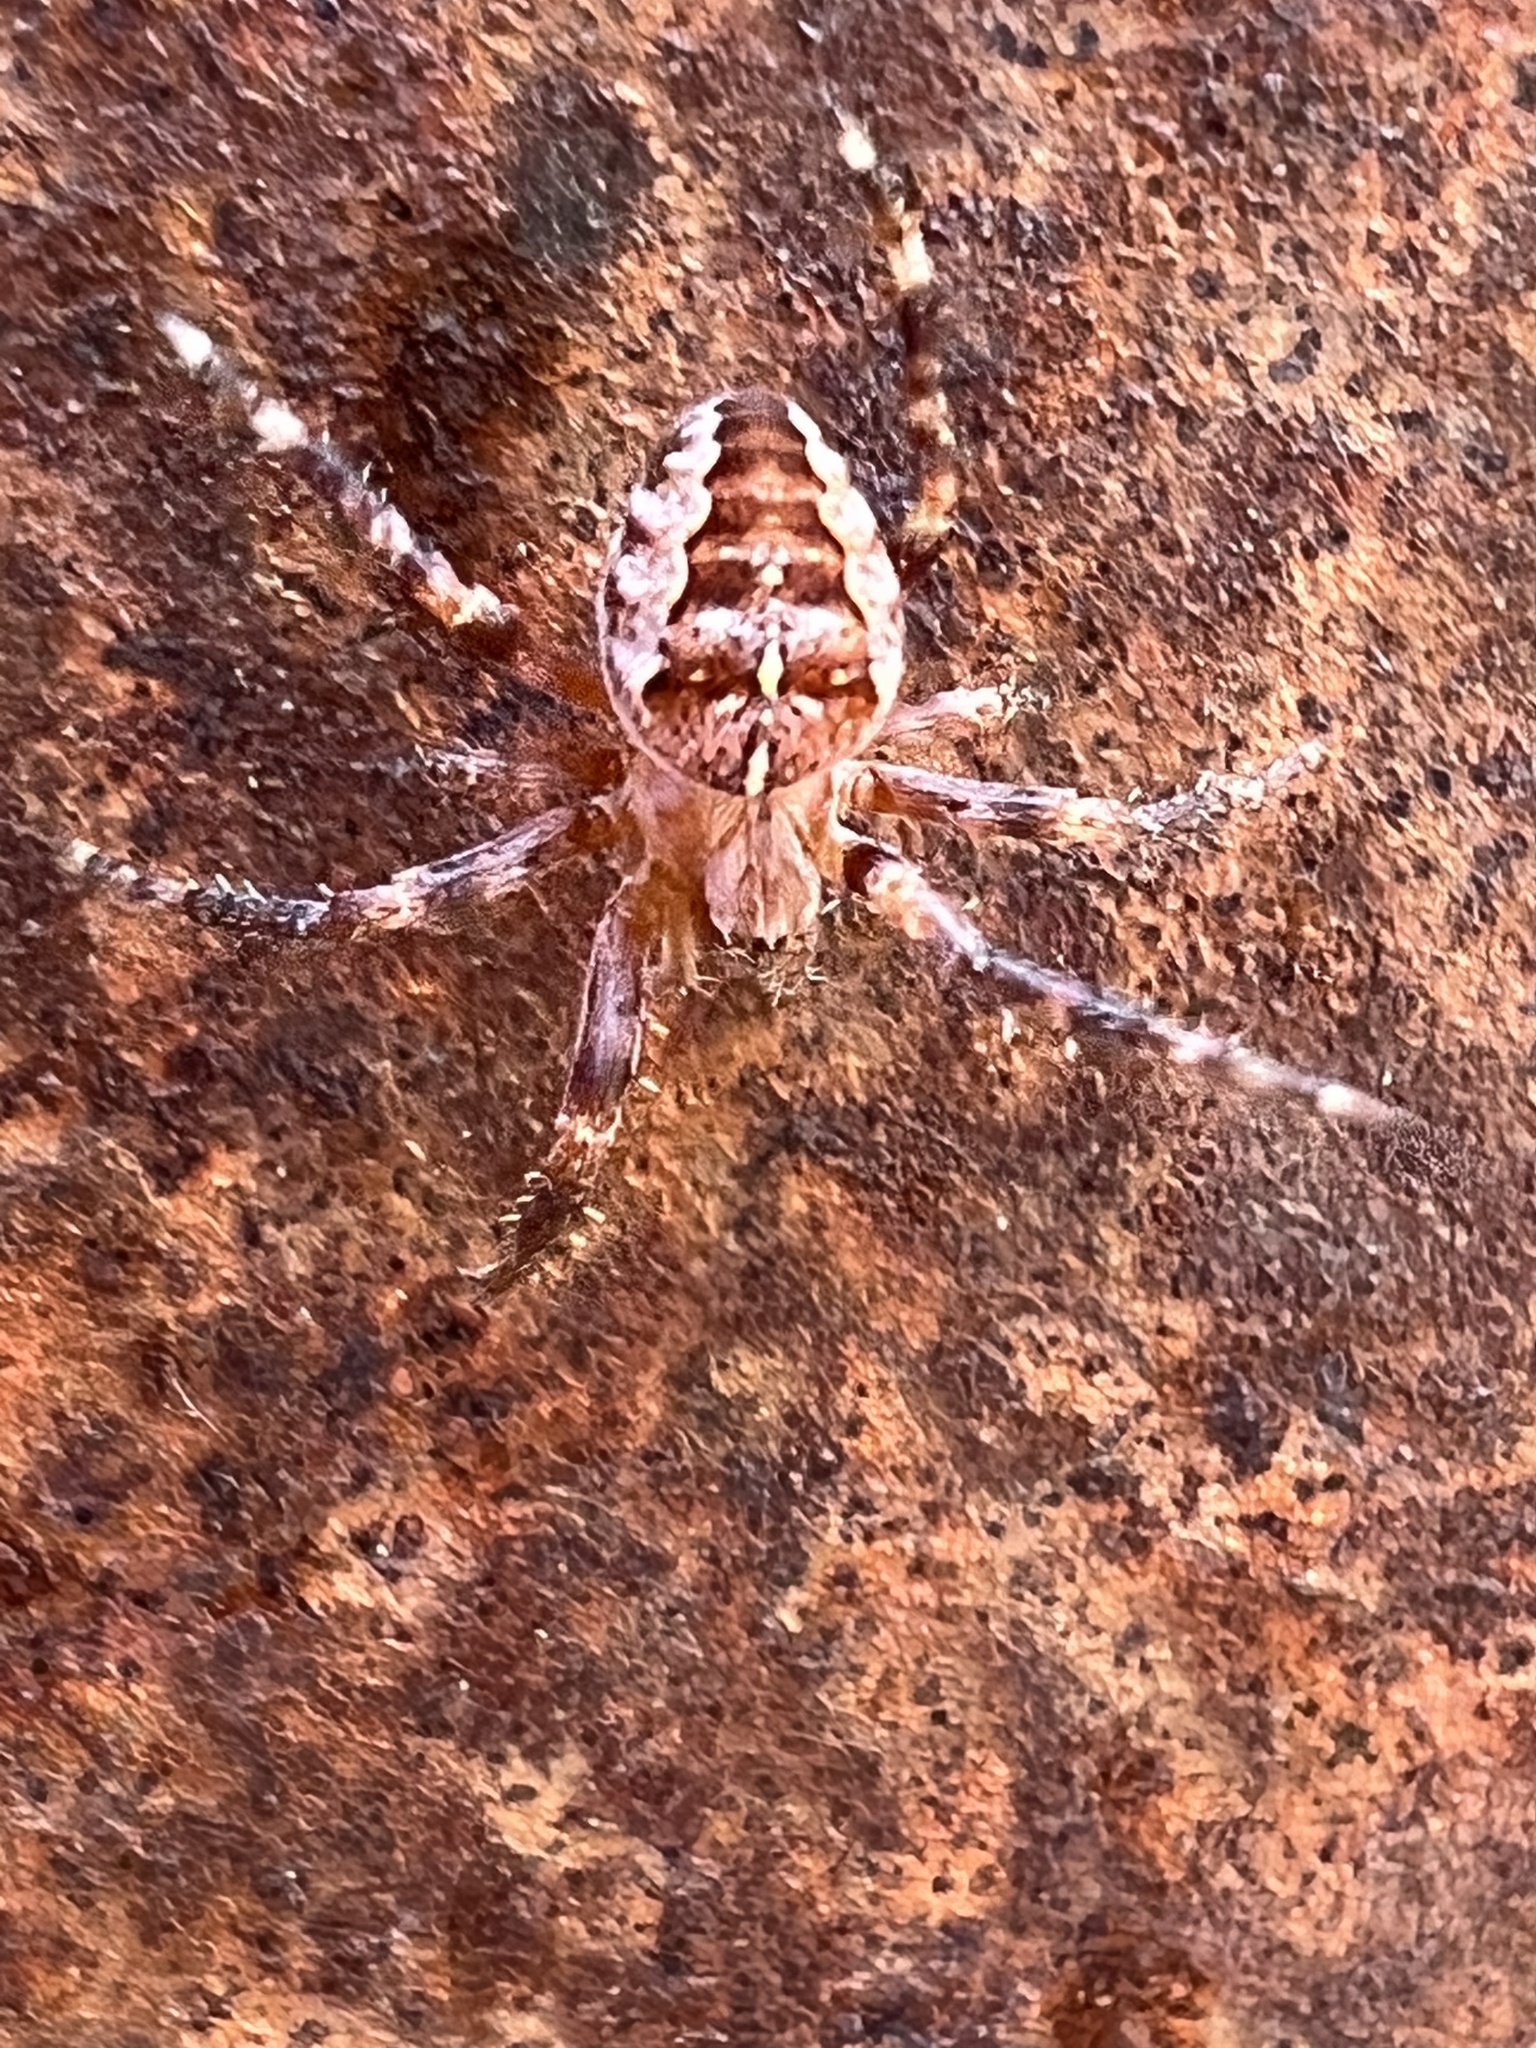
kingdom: Animalia
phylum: Arthropoda
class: Arachnida
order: Araneae
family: Araneidae
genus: Araneus
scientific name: Araneus diadematus
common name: Cross orbweaver
